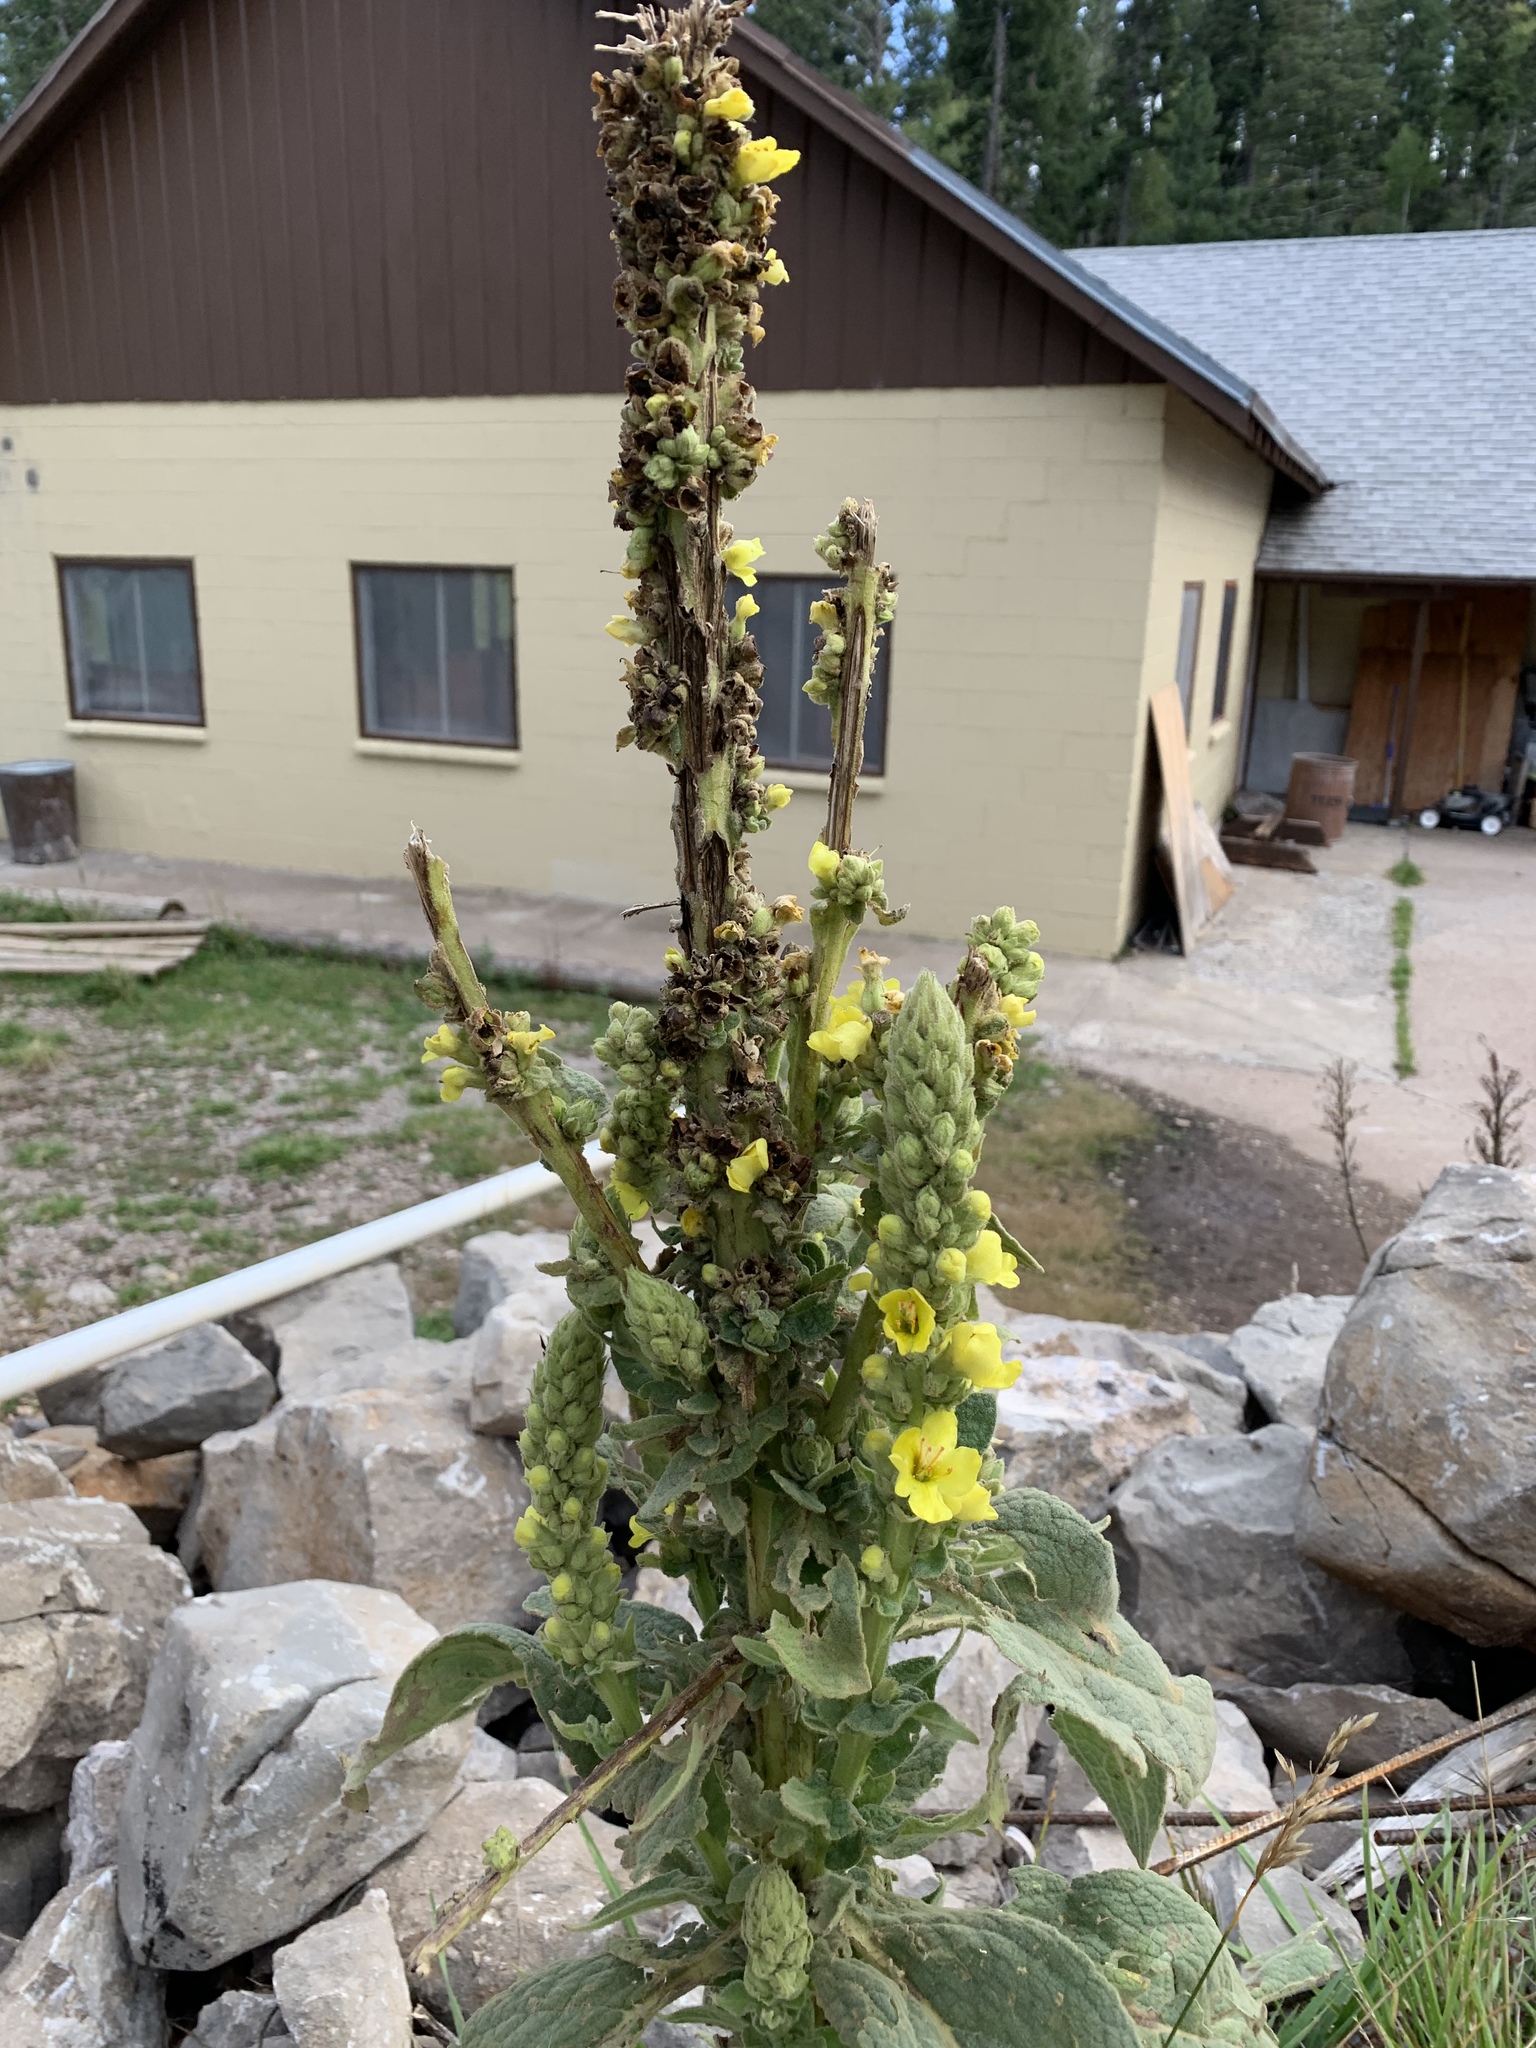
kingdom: Plantae
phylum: Tracheophyta
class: Magnoliopsida
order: Lamiales
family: Scrophulariaceae
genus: Verbascum
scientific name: Verbascum thapsus
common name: Common mullein
